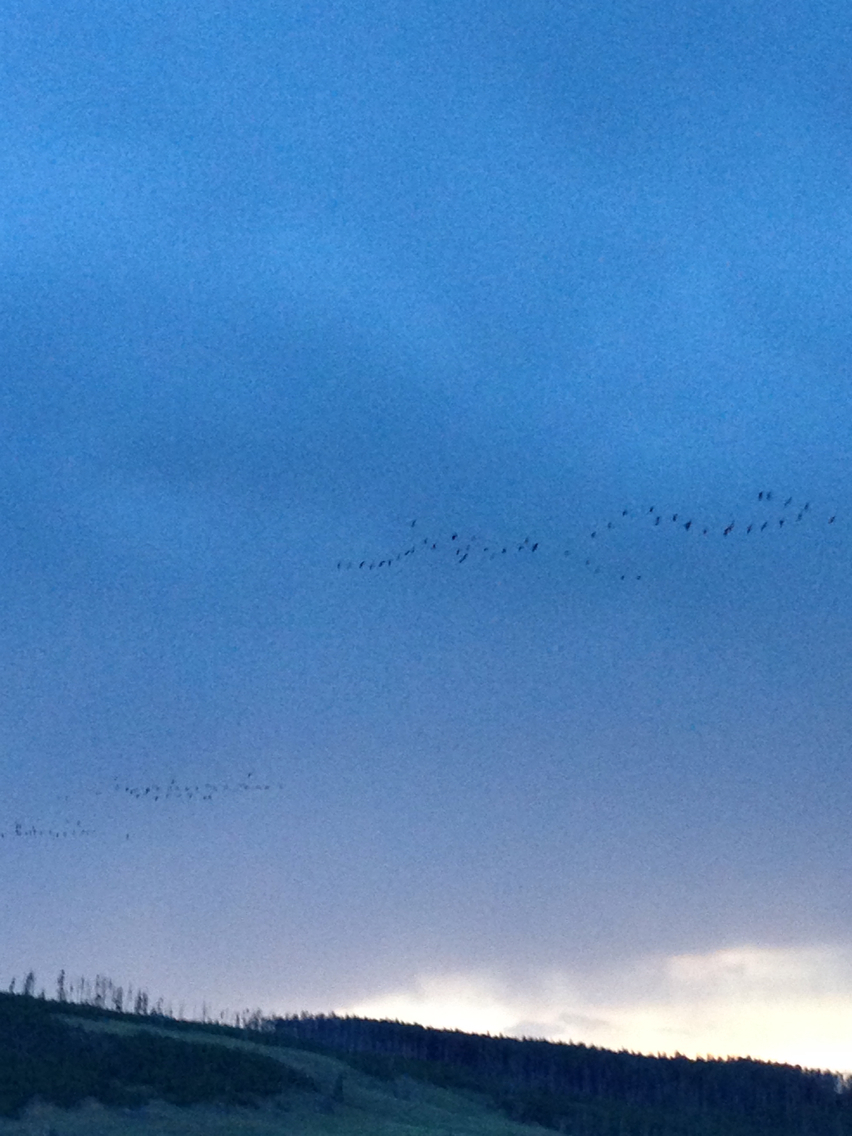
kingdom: Animalia
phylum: Chordata
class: Aves
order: Anseriformes
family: Anatidae
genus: Branta
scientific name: Branta canadensis
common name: Canada goose
